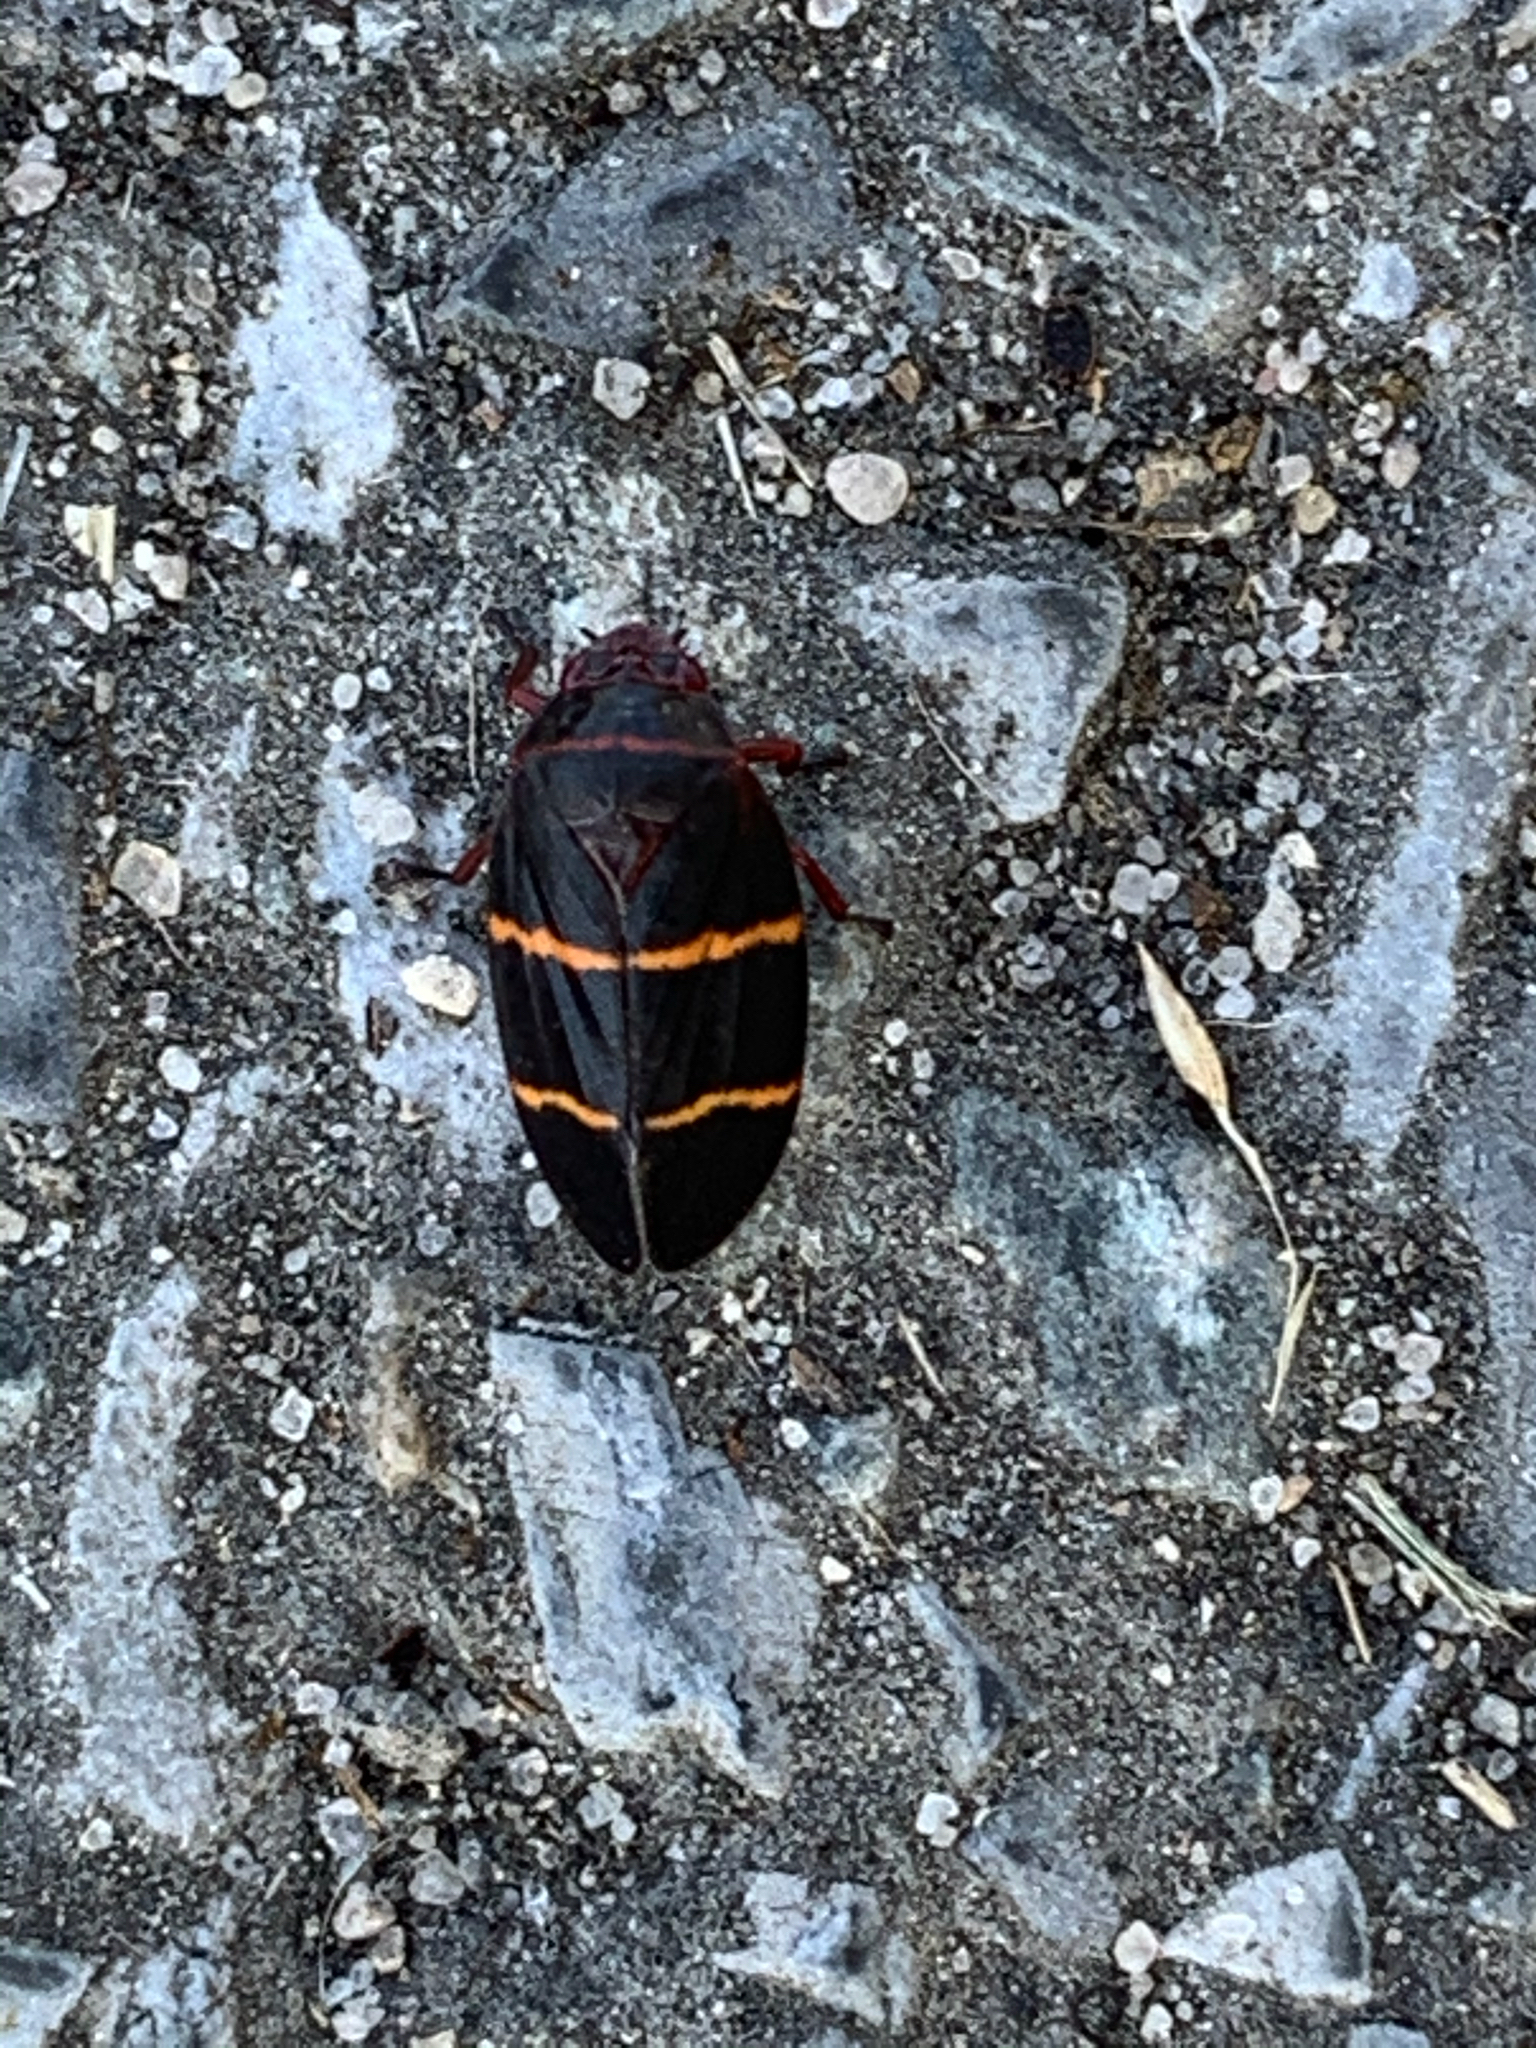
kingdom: Animalia
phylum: Arthropoda
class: Insecta
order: Hemiptera
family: Cercopidae
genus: Prosapia
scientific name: Prosapia bicincta
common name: Twolined spittlebug
